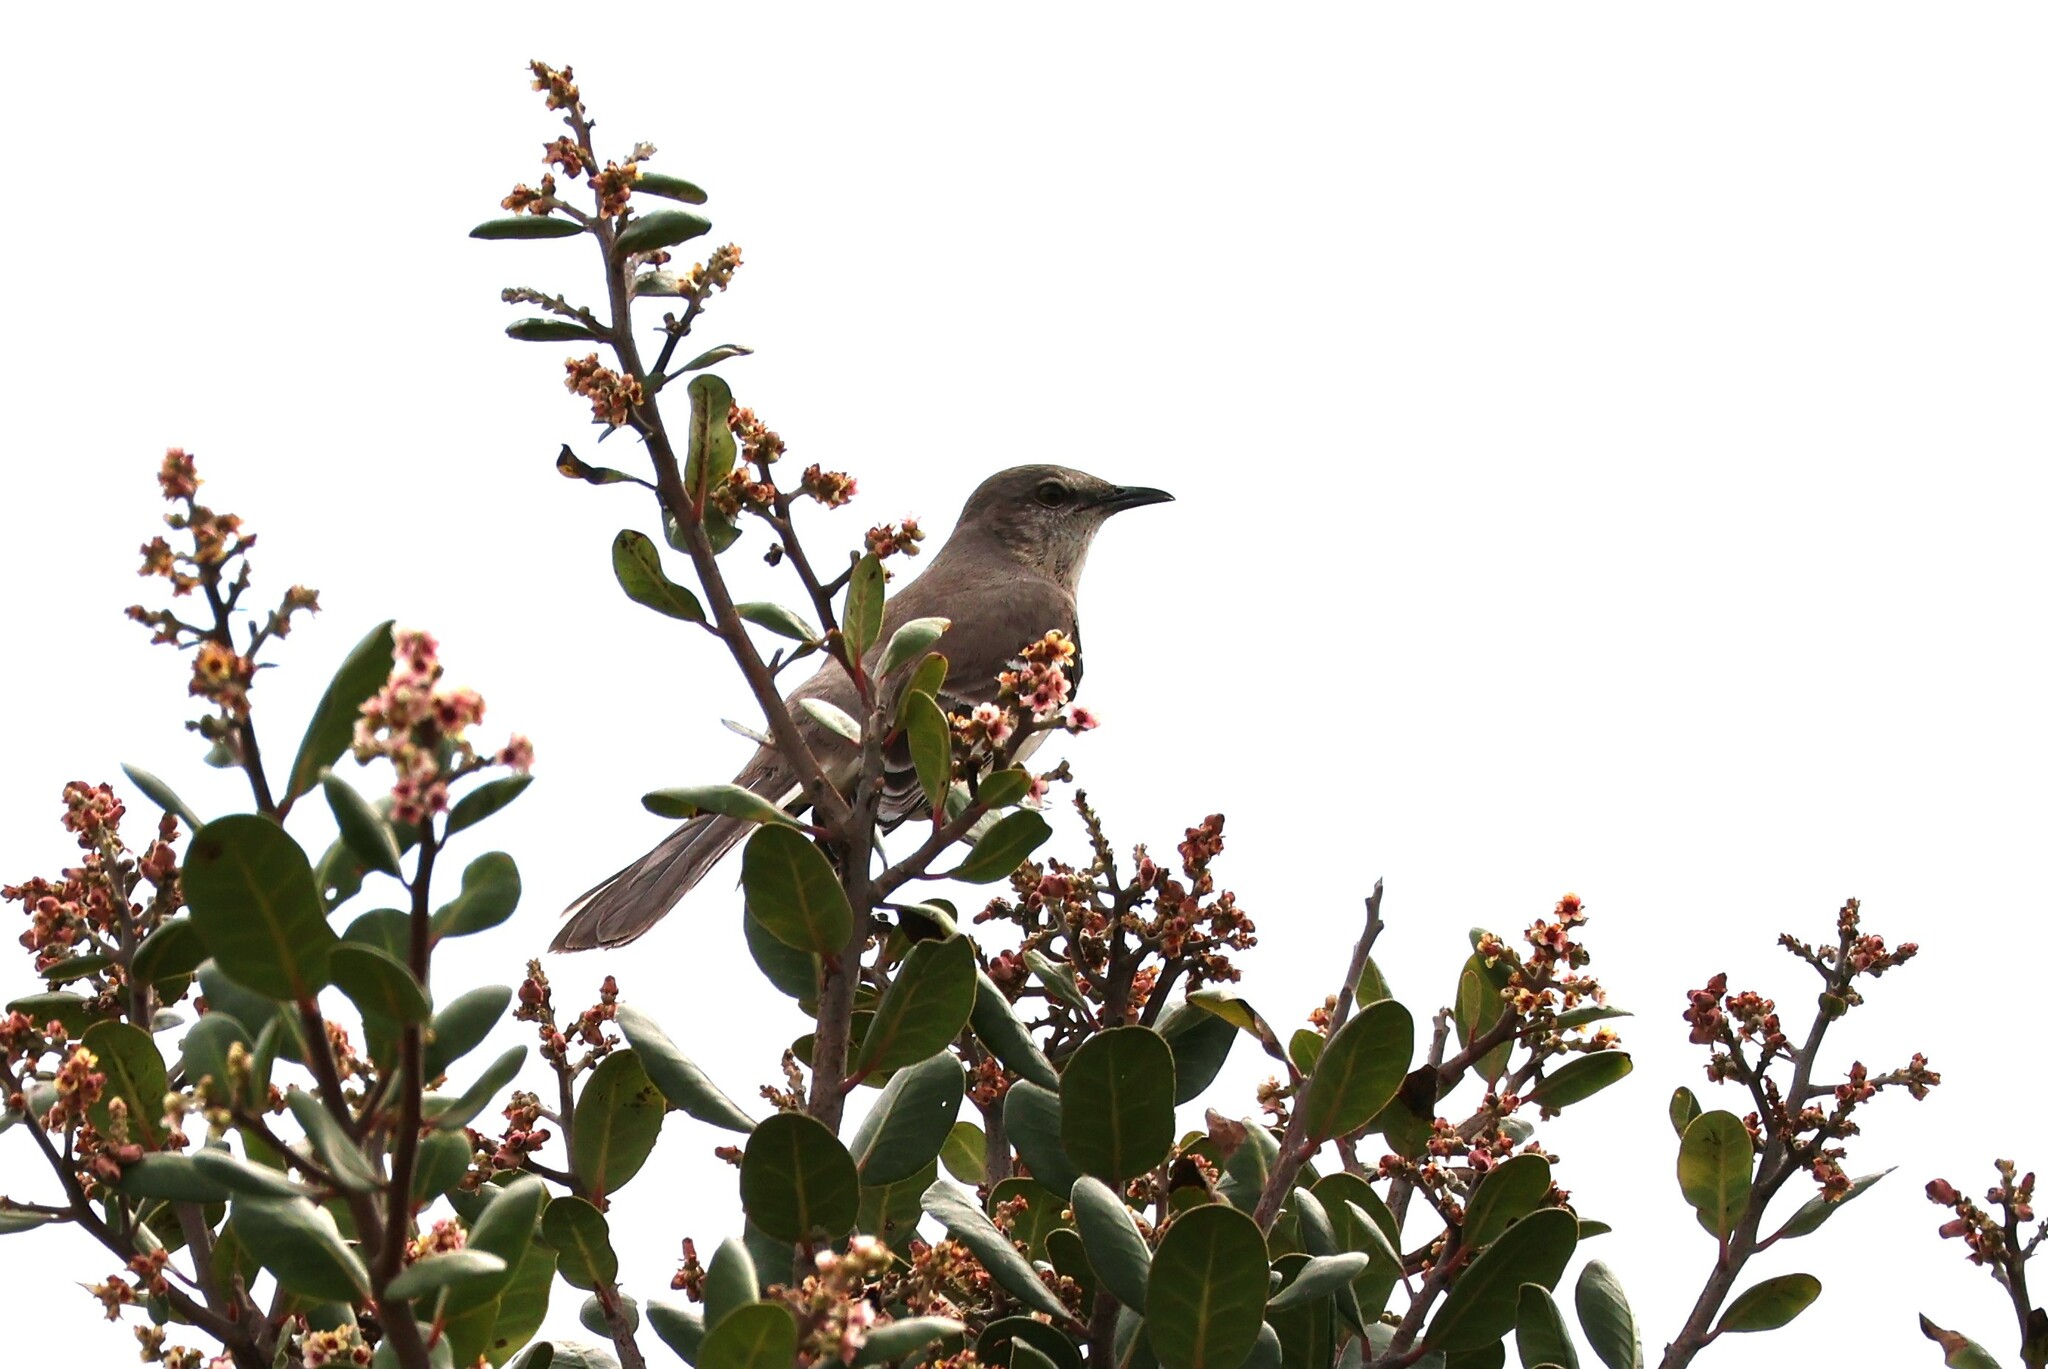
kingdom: Animalia
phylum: Chordata
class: Aves
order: Passeriformes
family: Mimidae
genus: Mimus
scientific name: Mimus polyglottos
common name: Northern mockingbird
